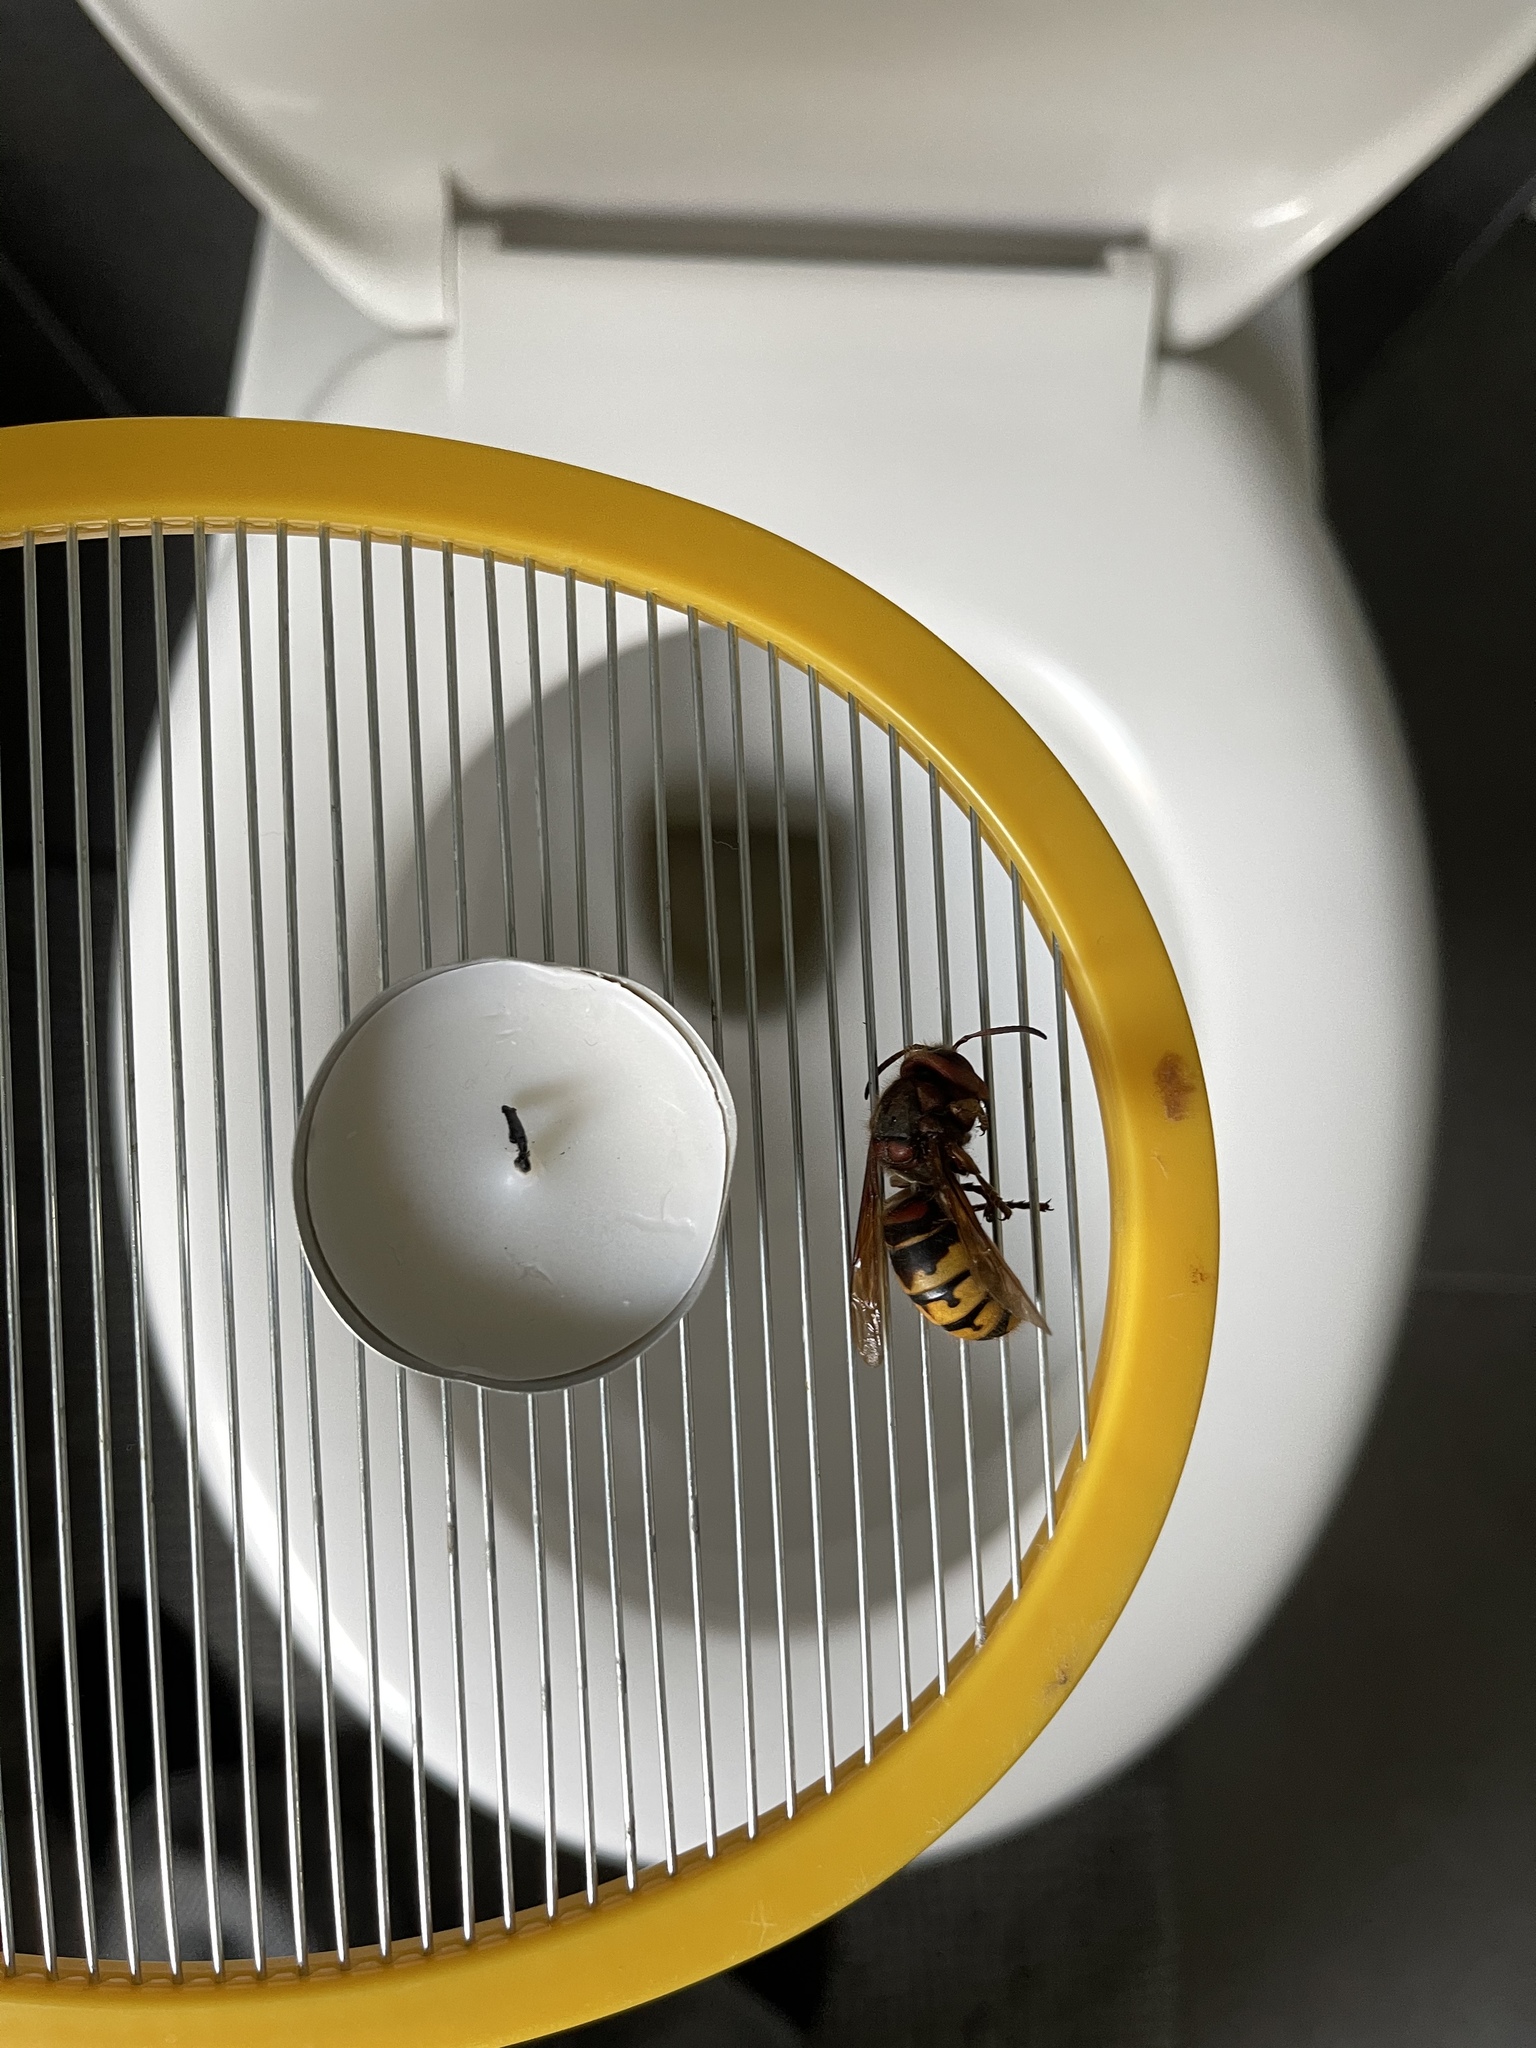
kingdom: Animalia
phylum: Arthropoda
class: Insecta
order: Hymenoptera
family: Vespidae
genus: Vespa
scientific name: Vespa crabro
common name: Hornet
